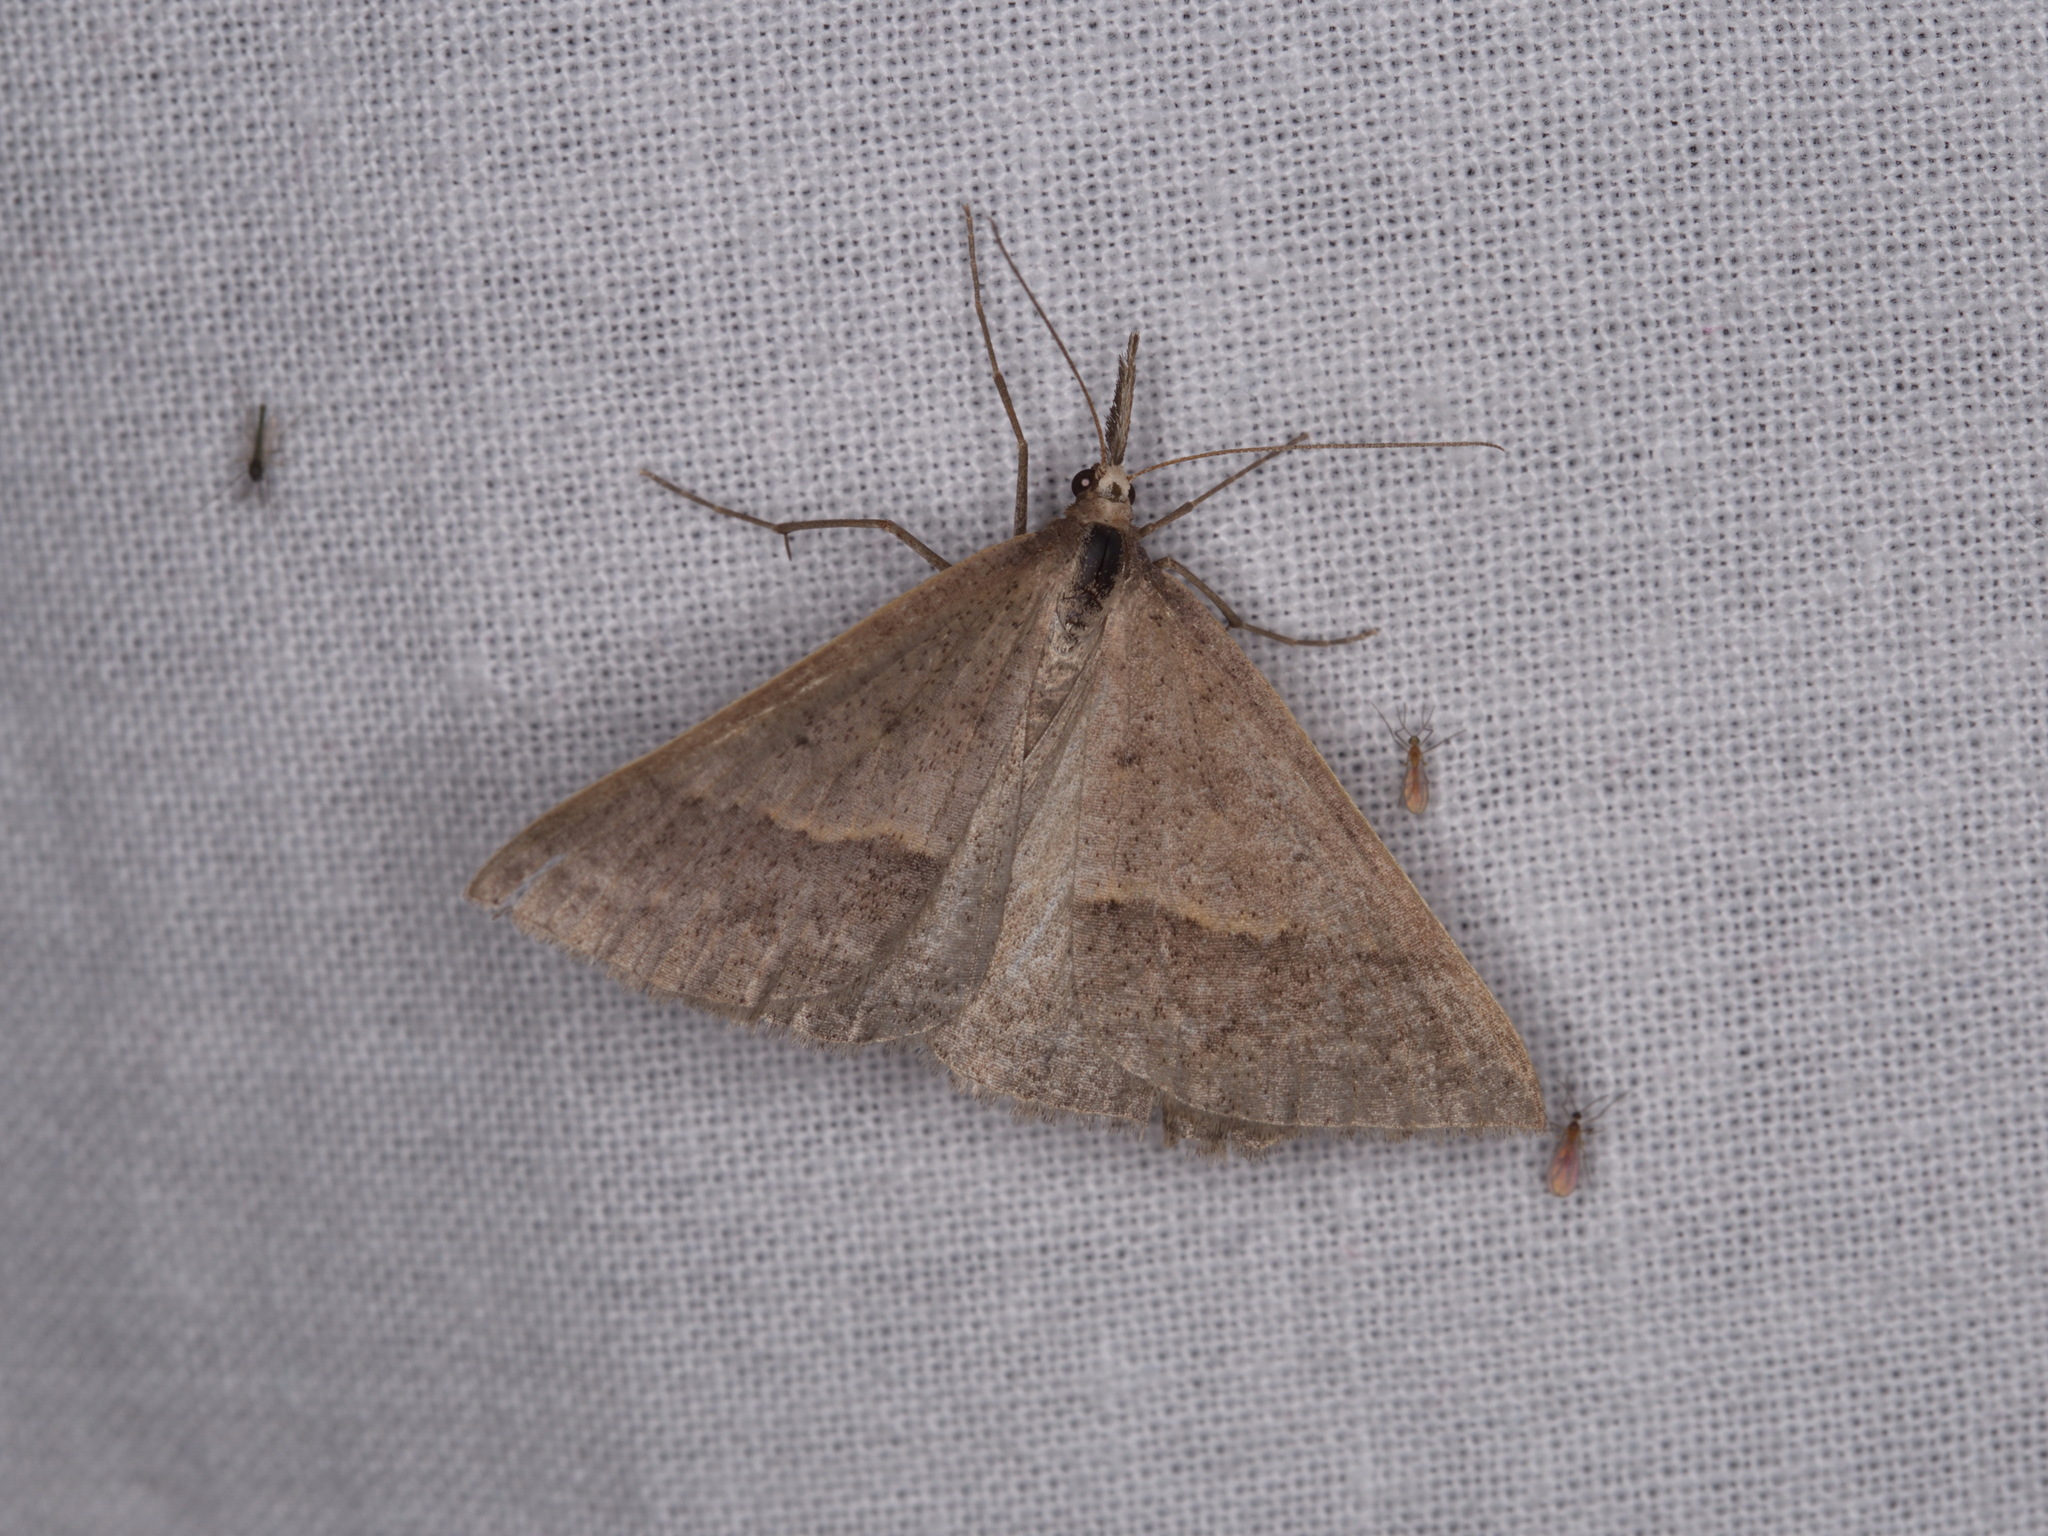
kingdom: Animalia
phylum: Arthropoda
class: Insecta
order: Lepidoptera
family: Geometridae
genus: Epidesmia
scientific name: Epidesmia hypenaria
